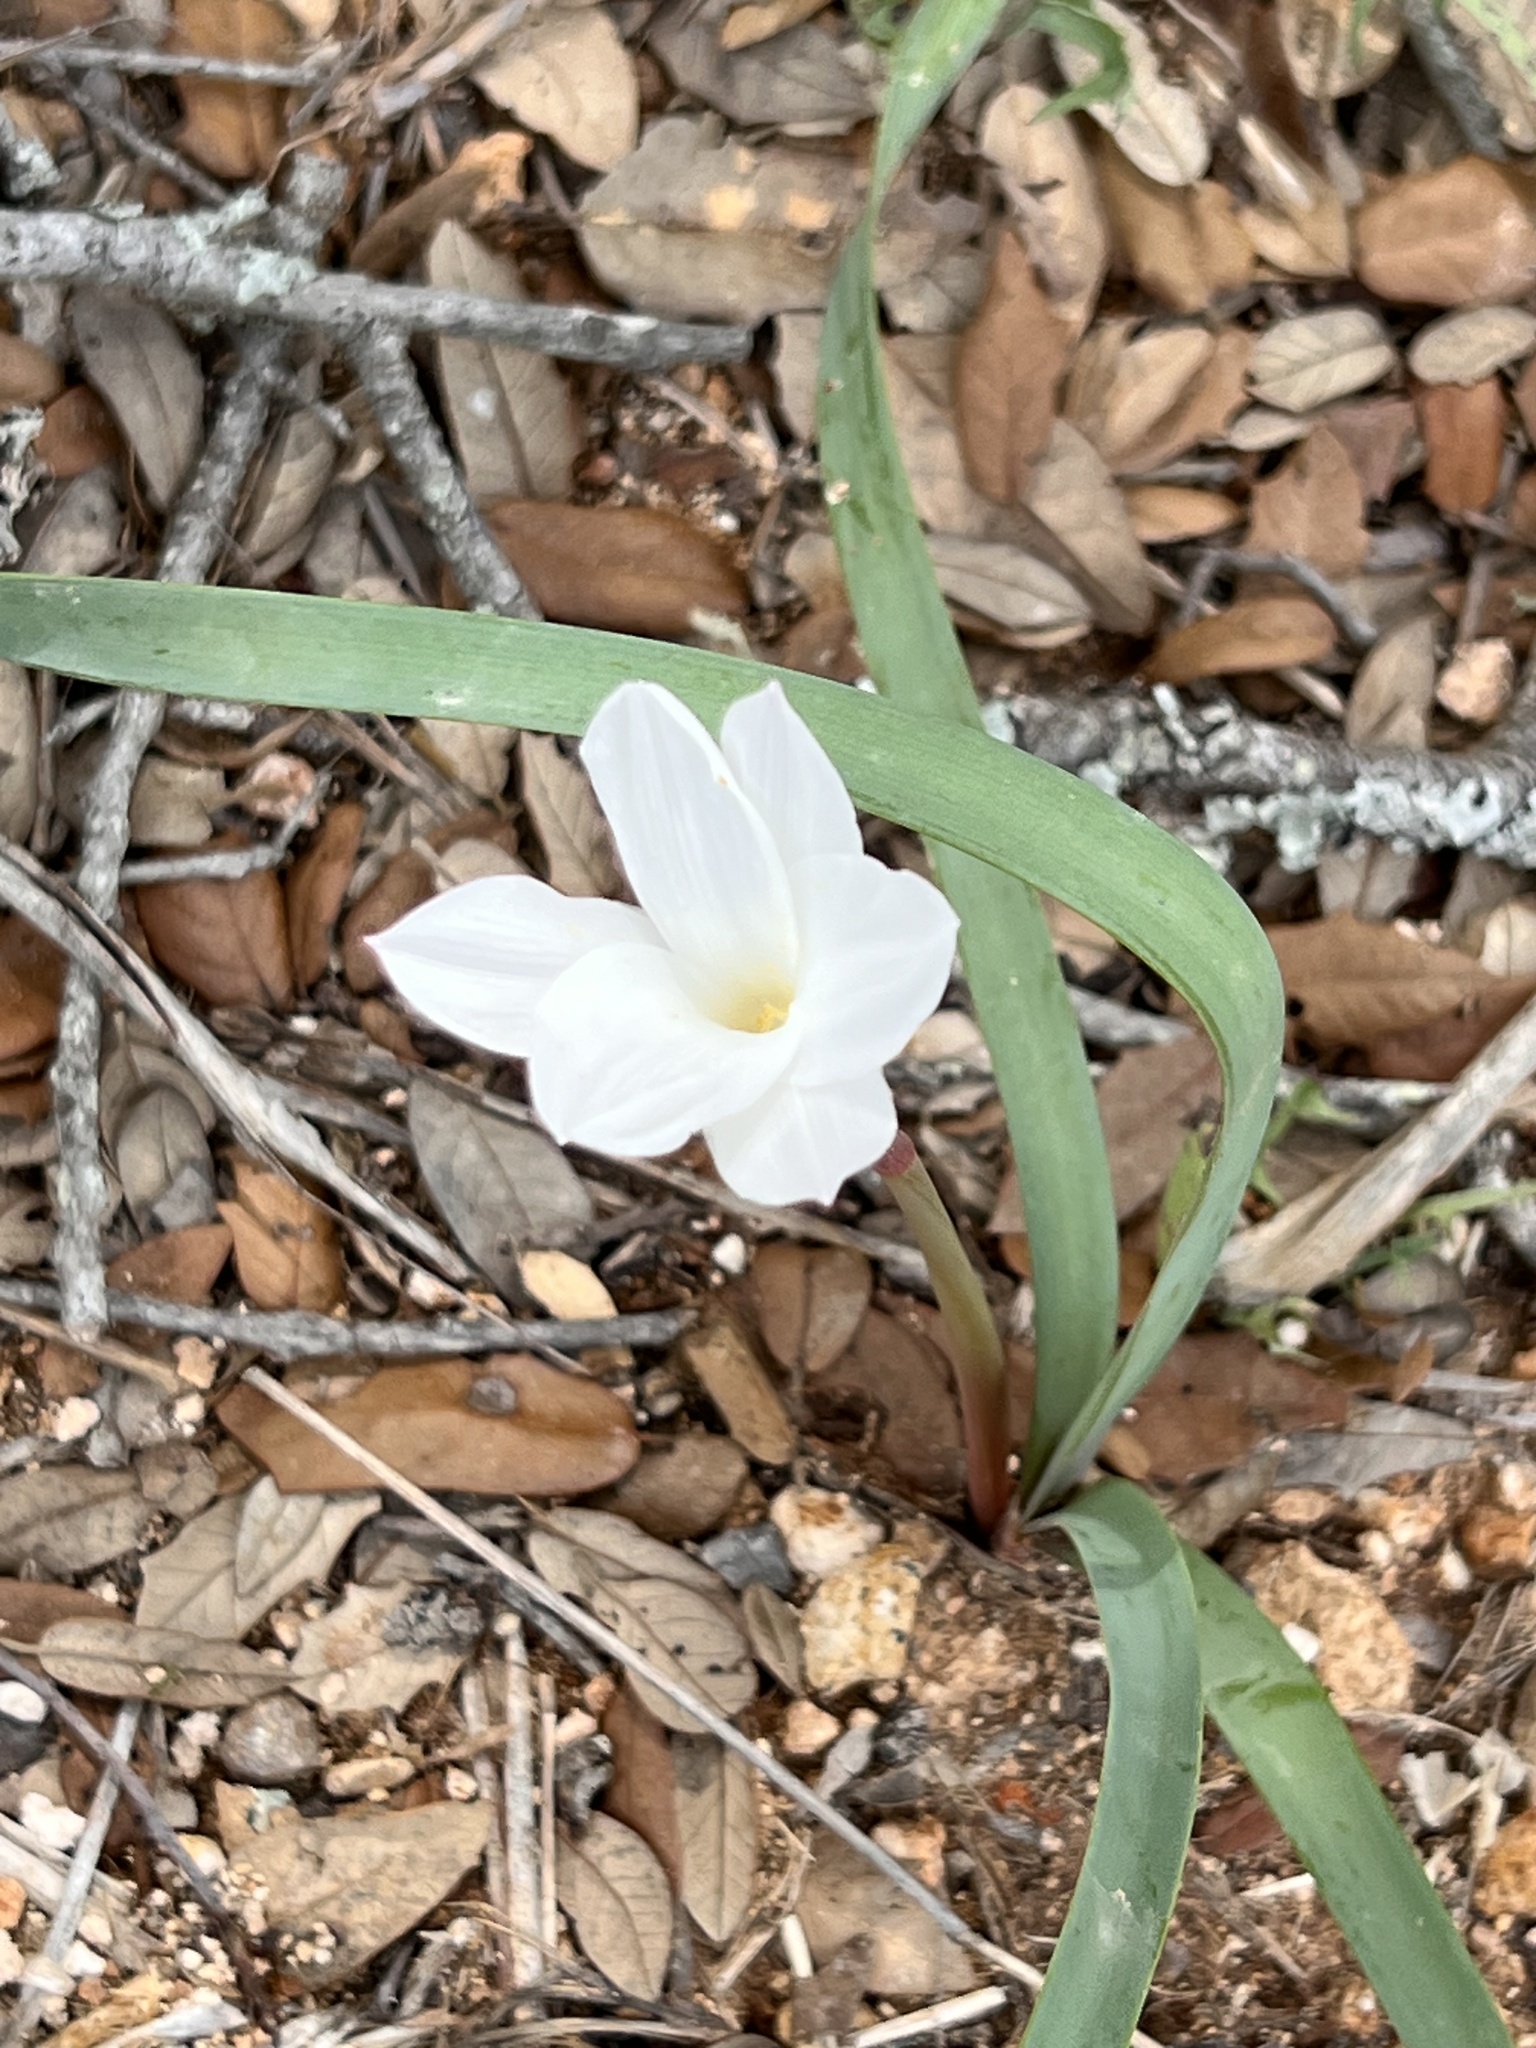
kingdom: Plantae
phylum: Tracheophyta
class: Liliopsida
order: Asparagales
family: Amaryllidaceae
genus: Zephyranthes
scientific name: Zephyranthes drummondii
